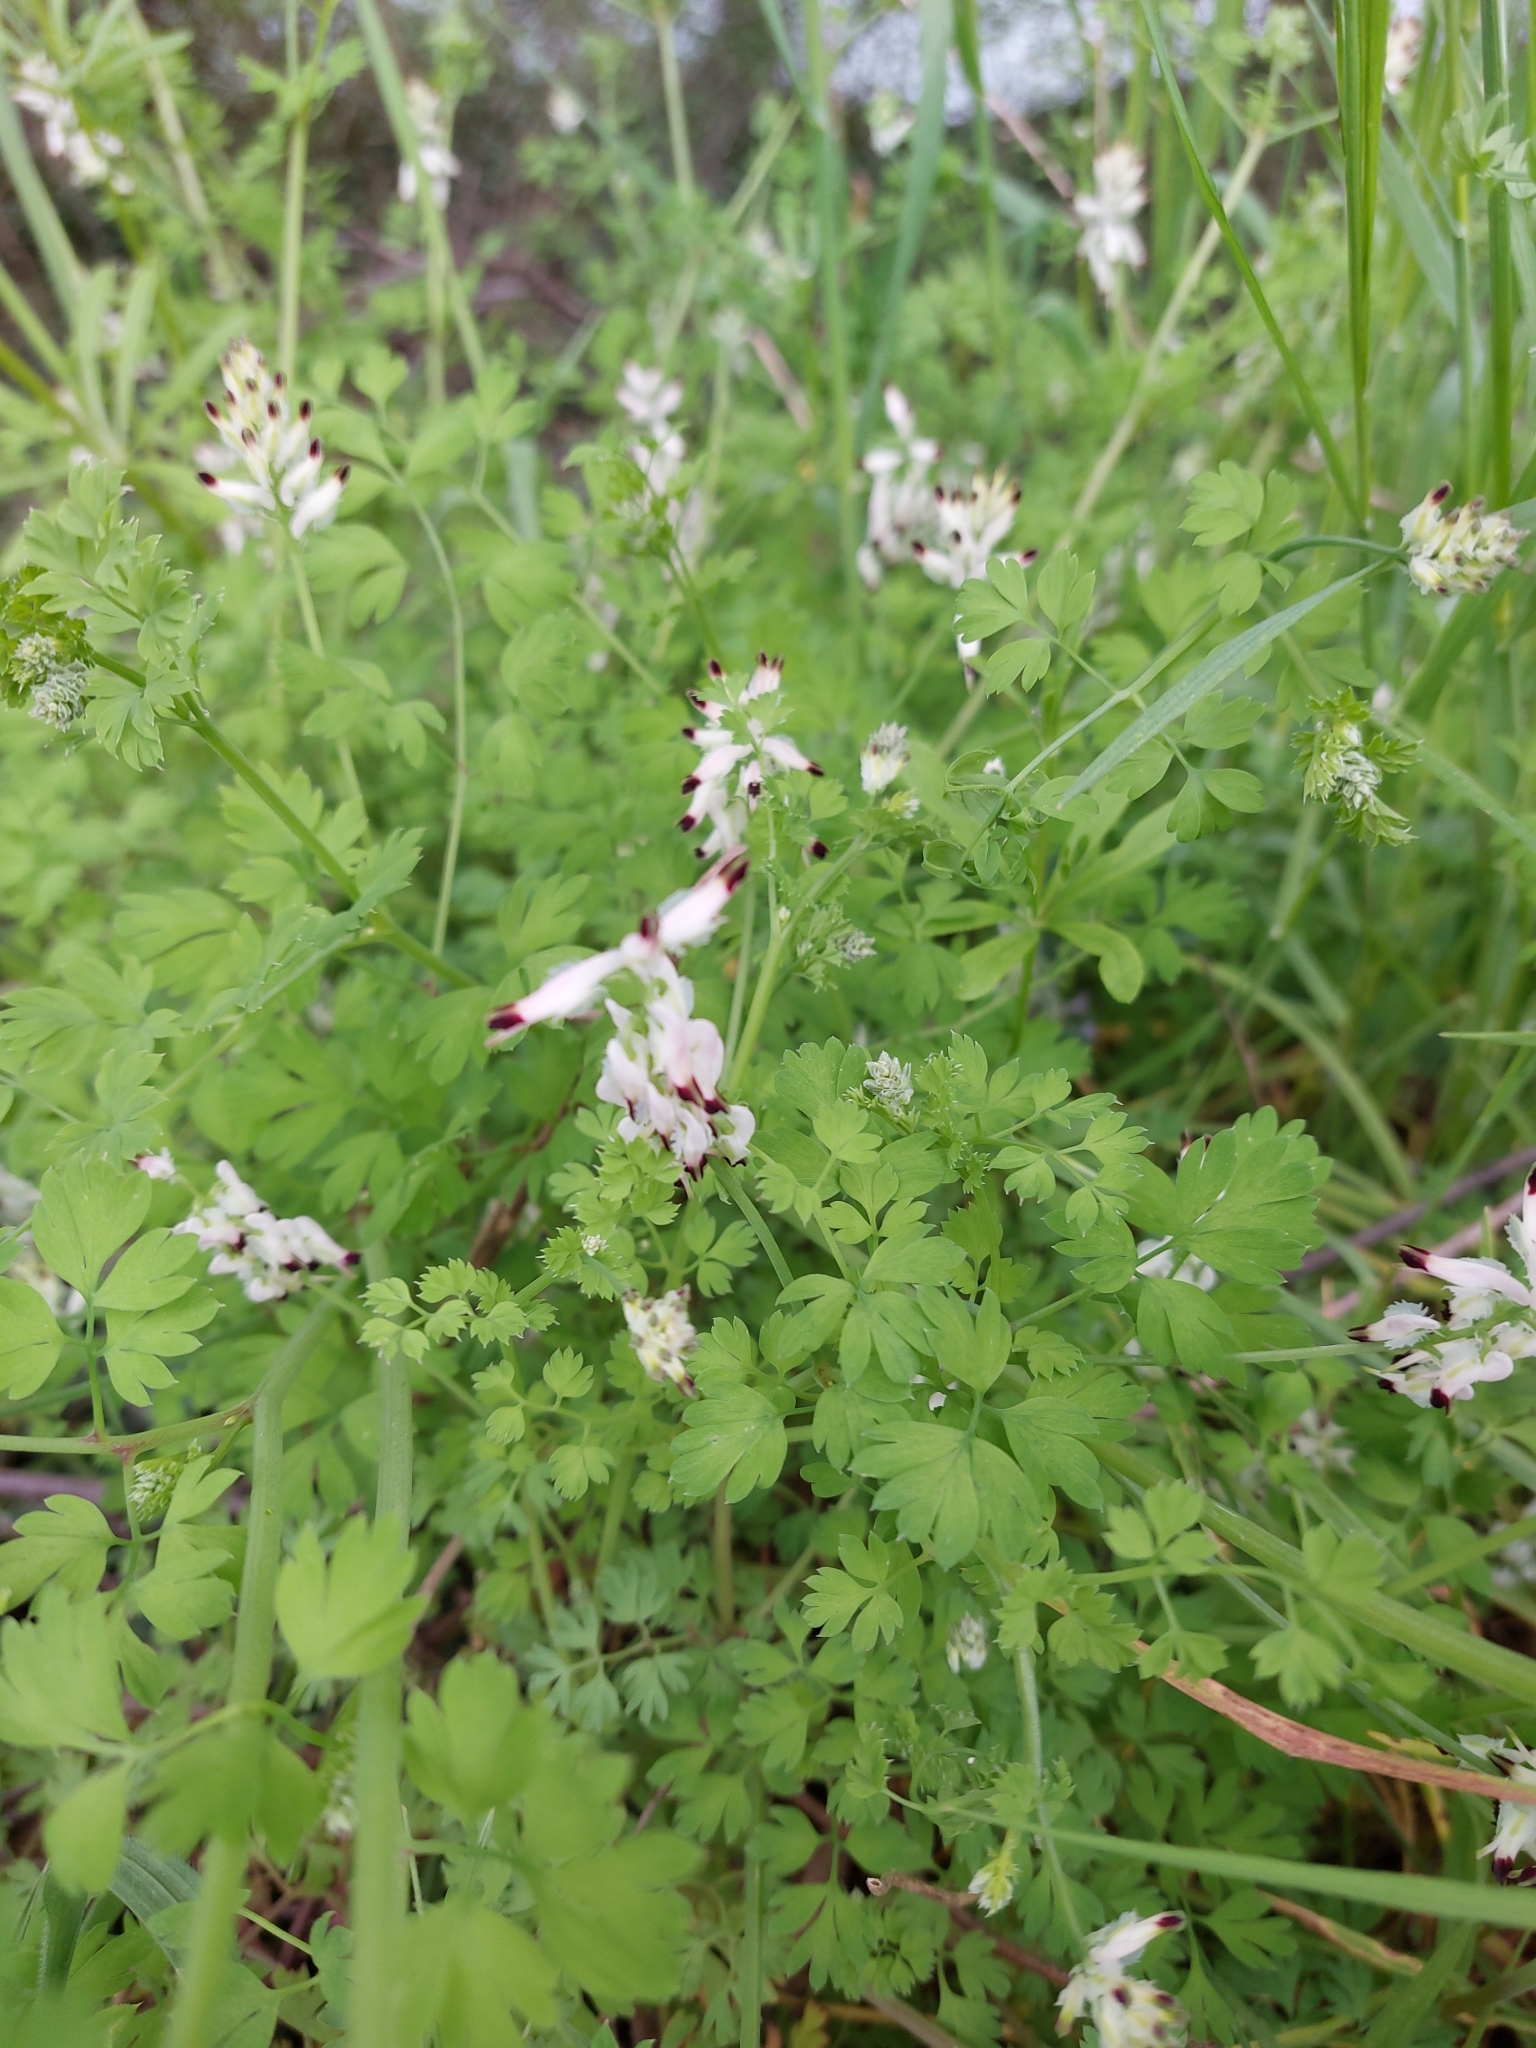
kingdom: Plantae
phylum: Tracheophyta
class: Magnoliopsida
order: Ranunculales
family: Papaveraceae
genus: Fumaria
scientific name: Fumaria capreolata
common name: White ramping-fumitory
